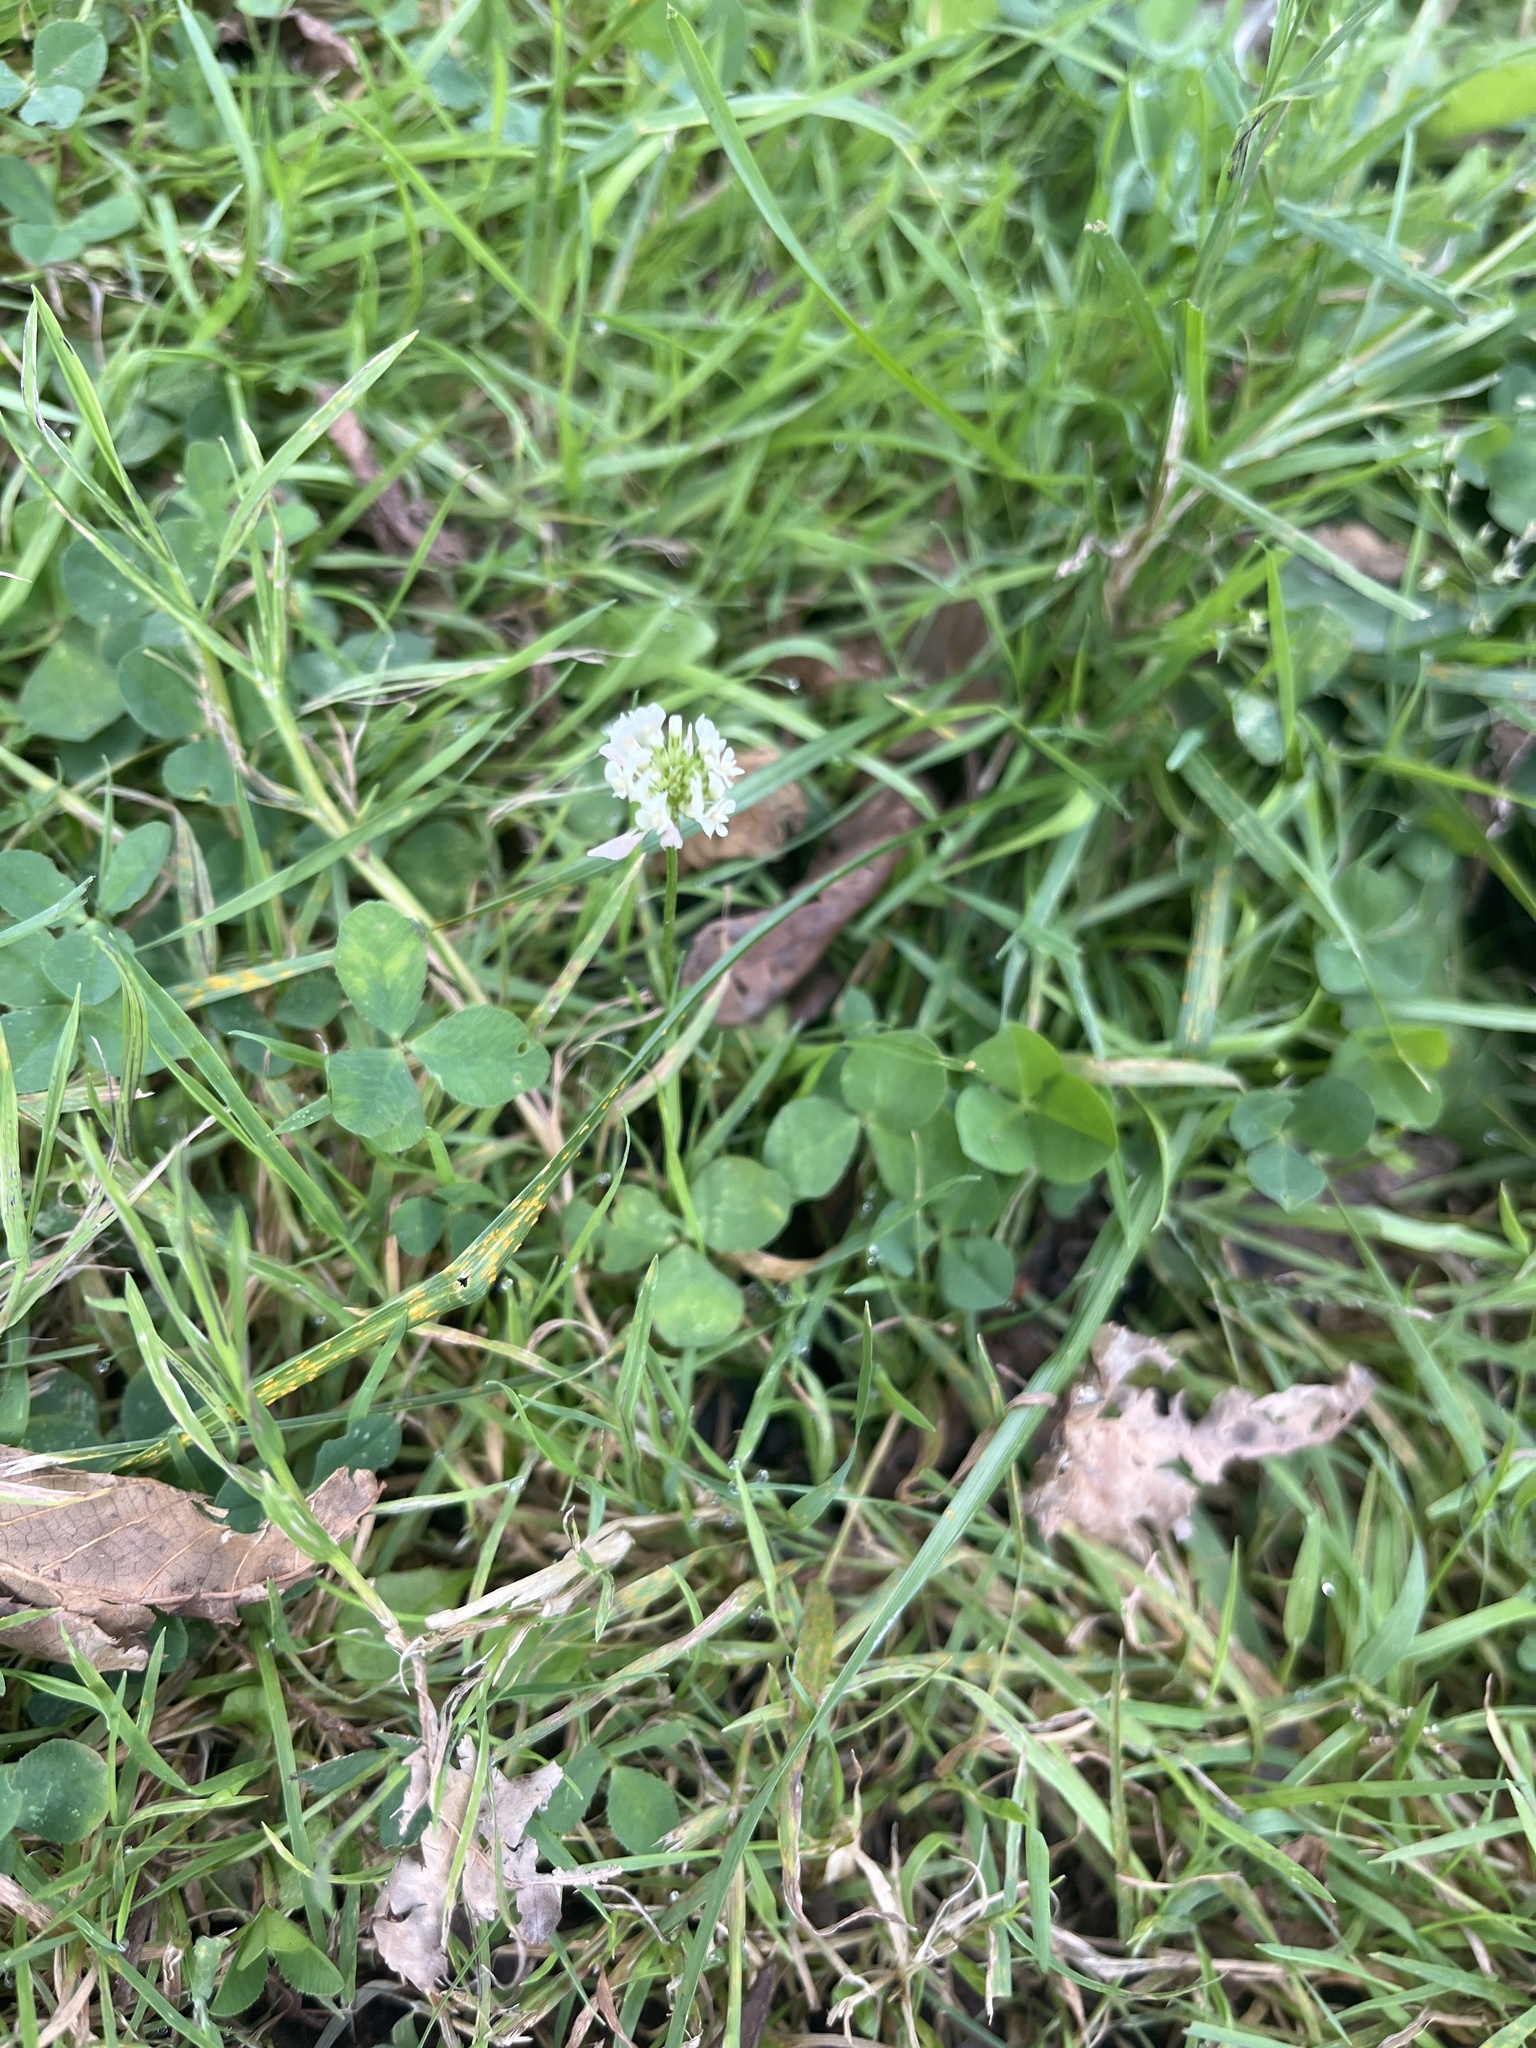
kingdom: Plantae
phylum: Tracheophyta
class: Magnoliopsida
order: Fabales
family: Fabaceae
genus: Trifolium
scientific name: Trifolium repens
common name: White clover
